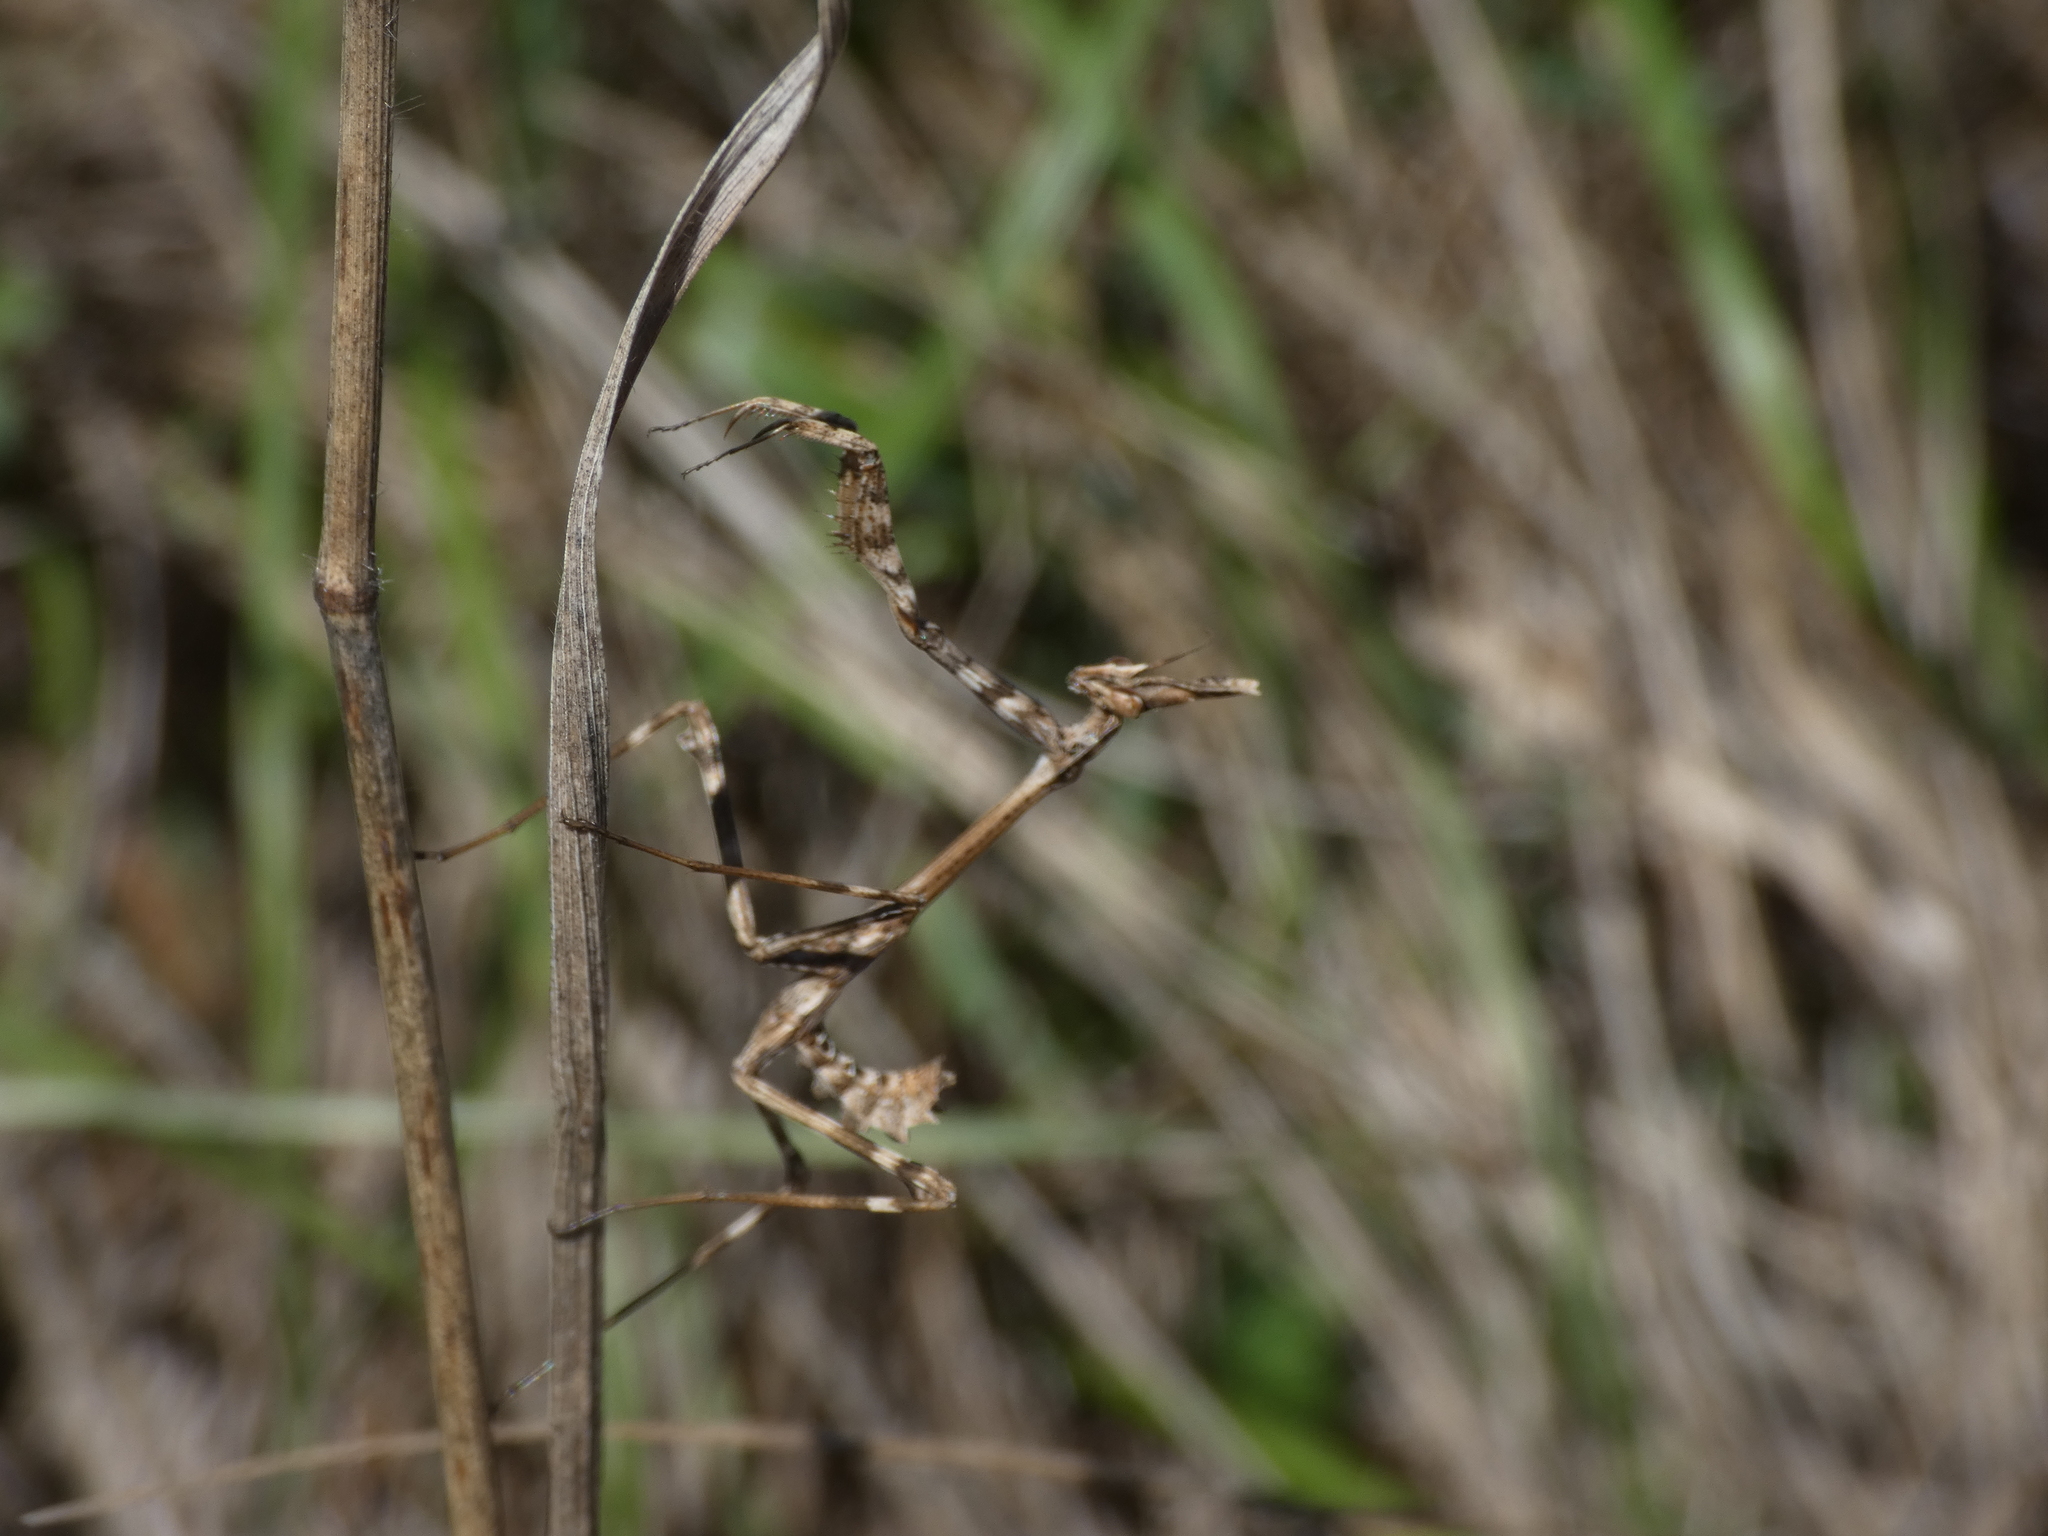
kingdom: Animalia
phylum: Arthropoda
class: Insecta
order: Mantodea
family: Empusidae
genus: Empusa
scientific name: Empusa pennata
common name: Conehead mantis
